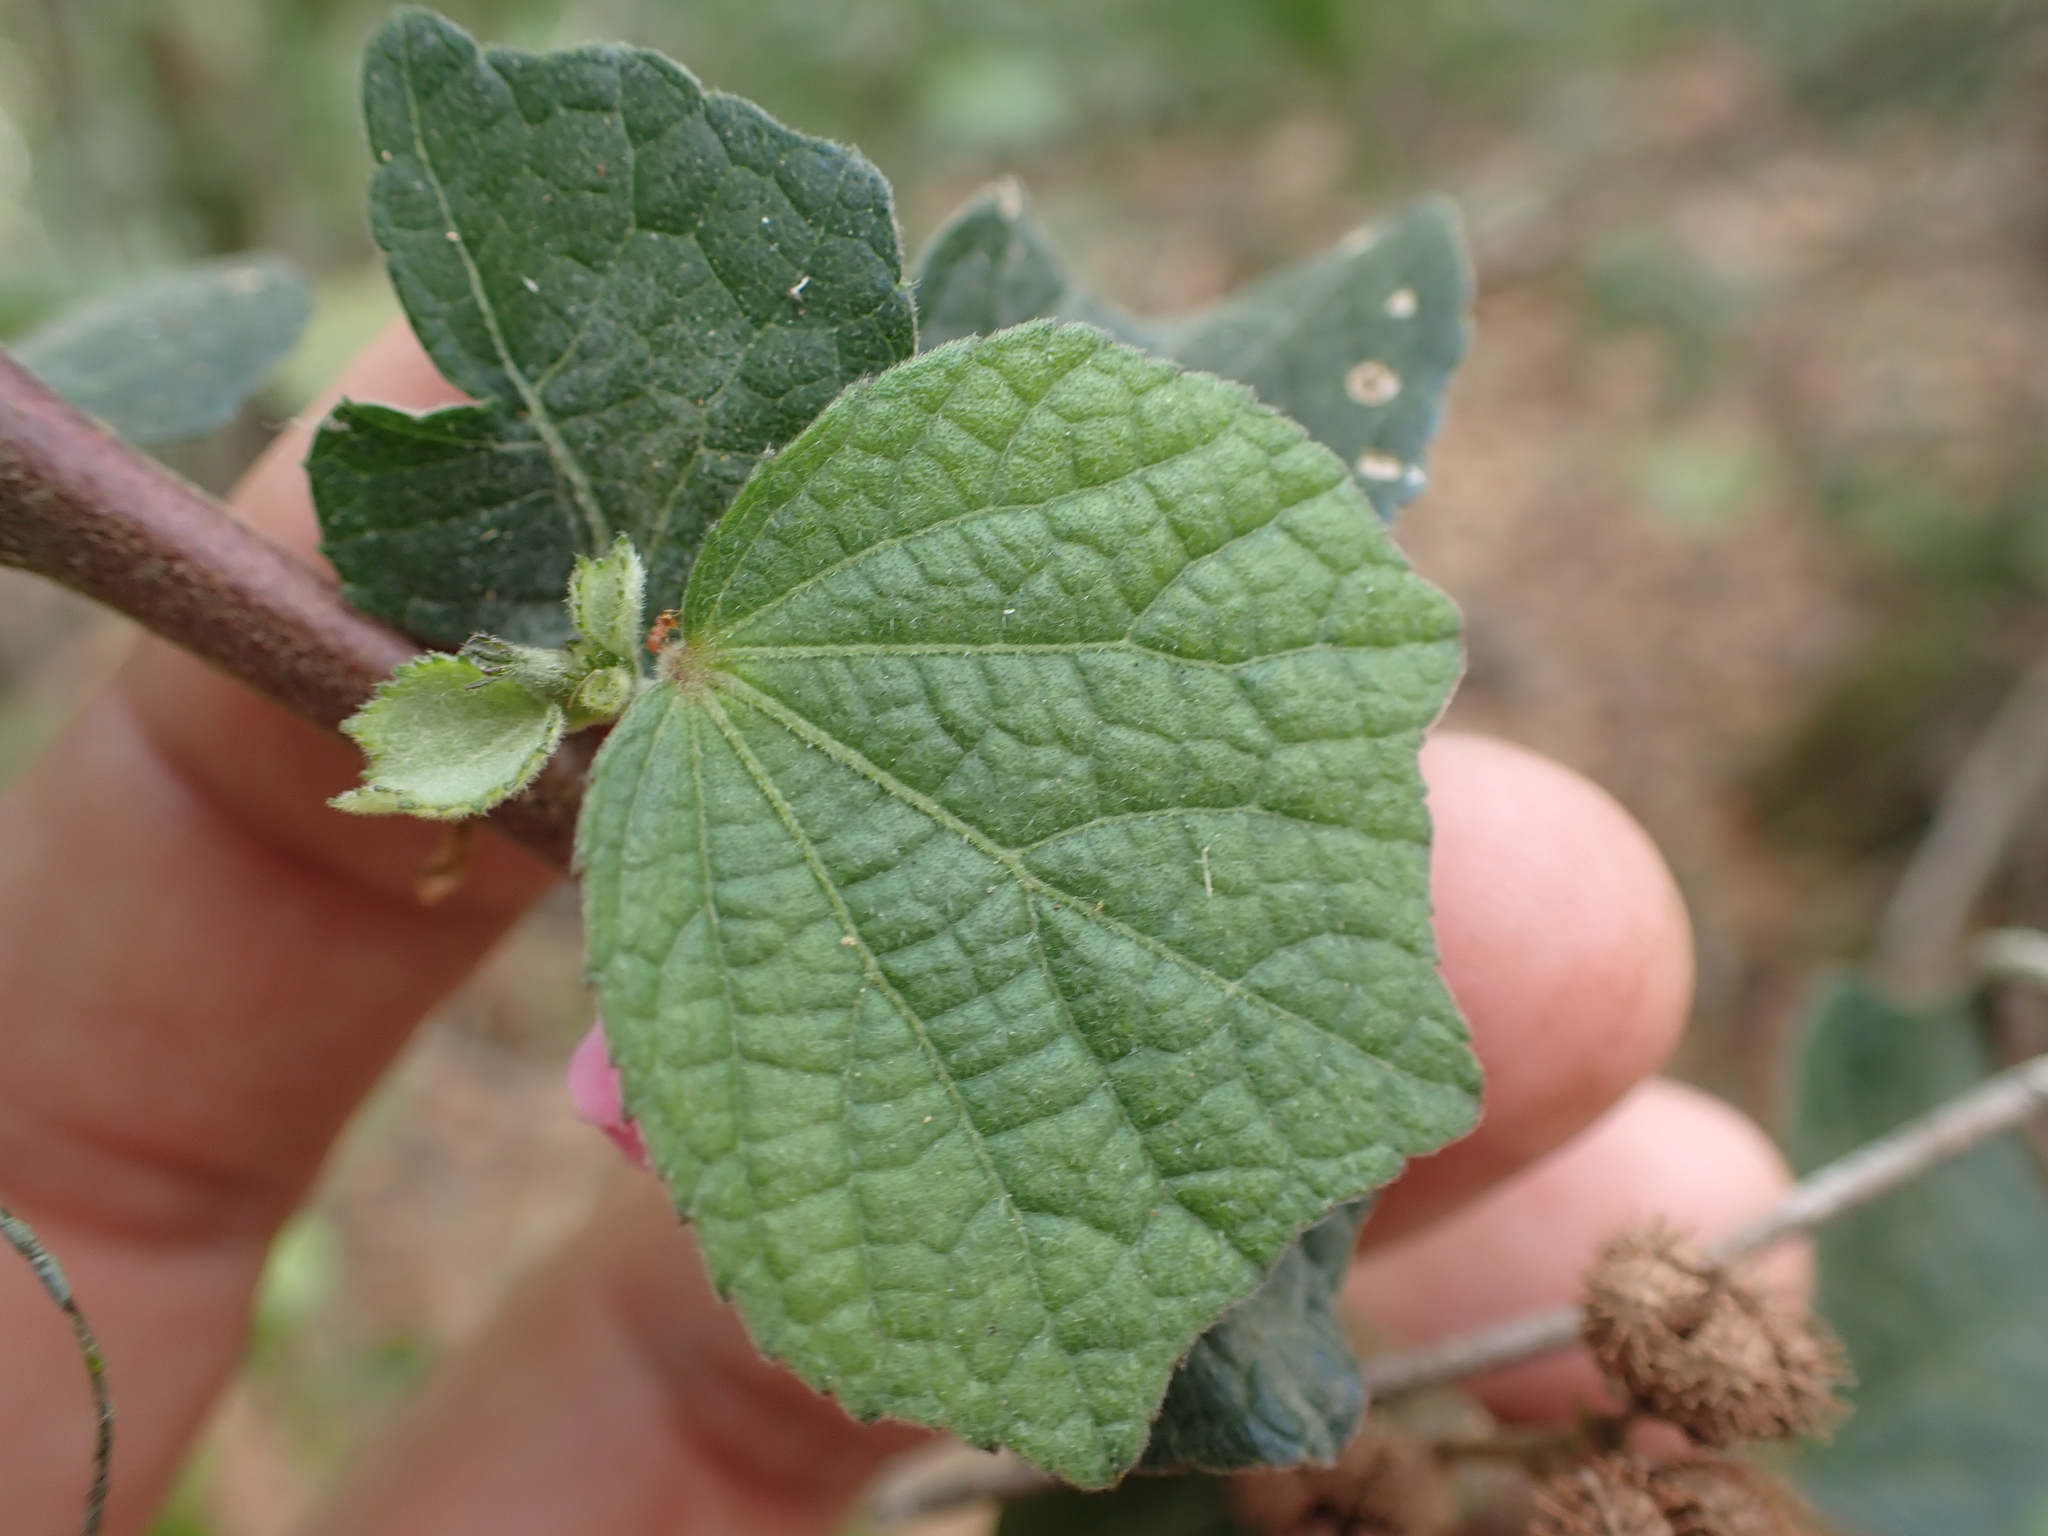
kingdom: Plantae
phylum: Tracheophyta
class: Magnoliopsida
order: Malvales
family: Malvaceae
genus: Urena
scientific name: Urena lobata
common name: Caesarweed
